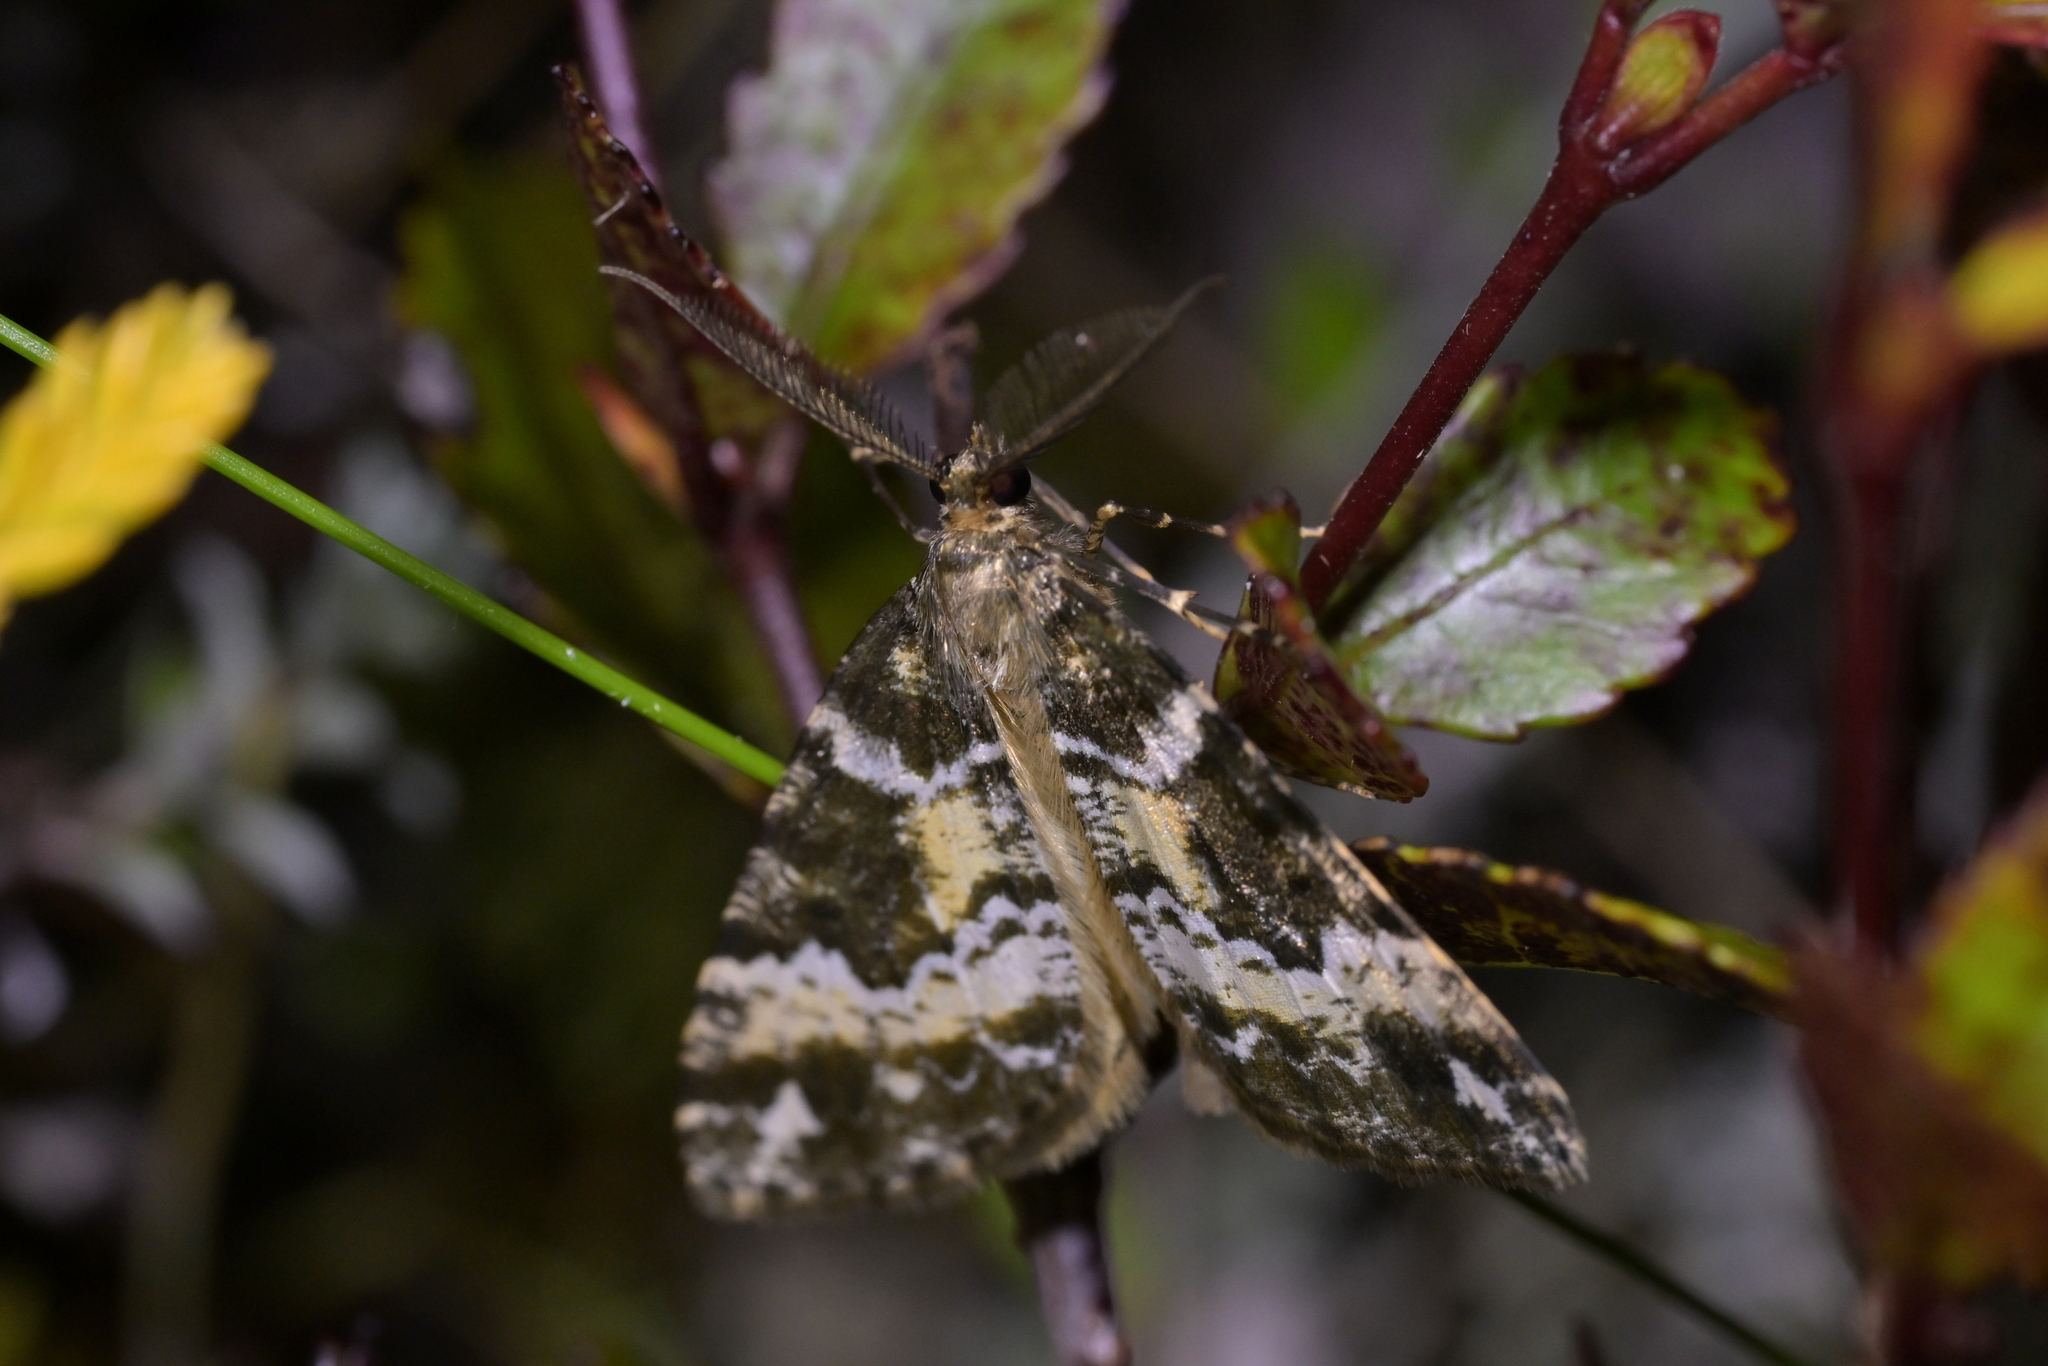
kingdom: Animalia
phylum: Arthropoda
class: Insecta
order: Lepidoptera
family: Geometridae
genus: Pseudocoremia
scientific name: Pseudocoremia productata
